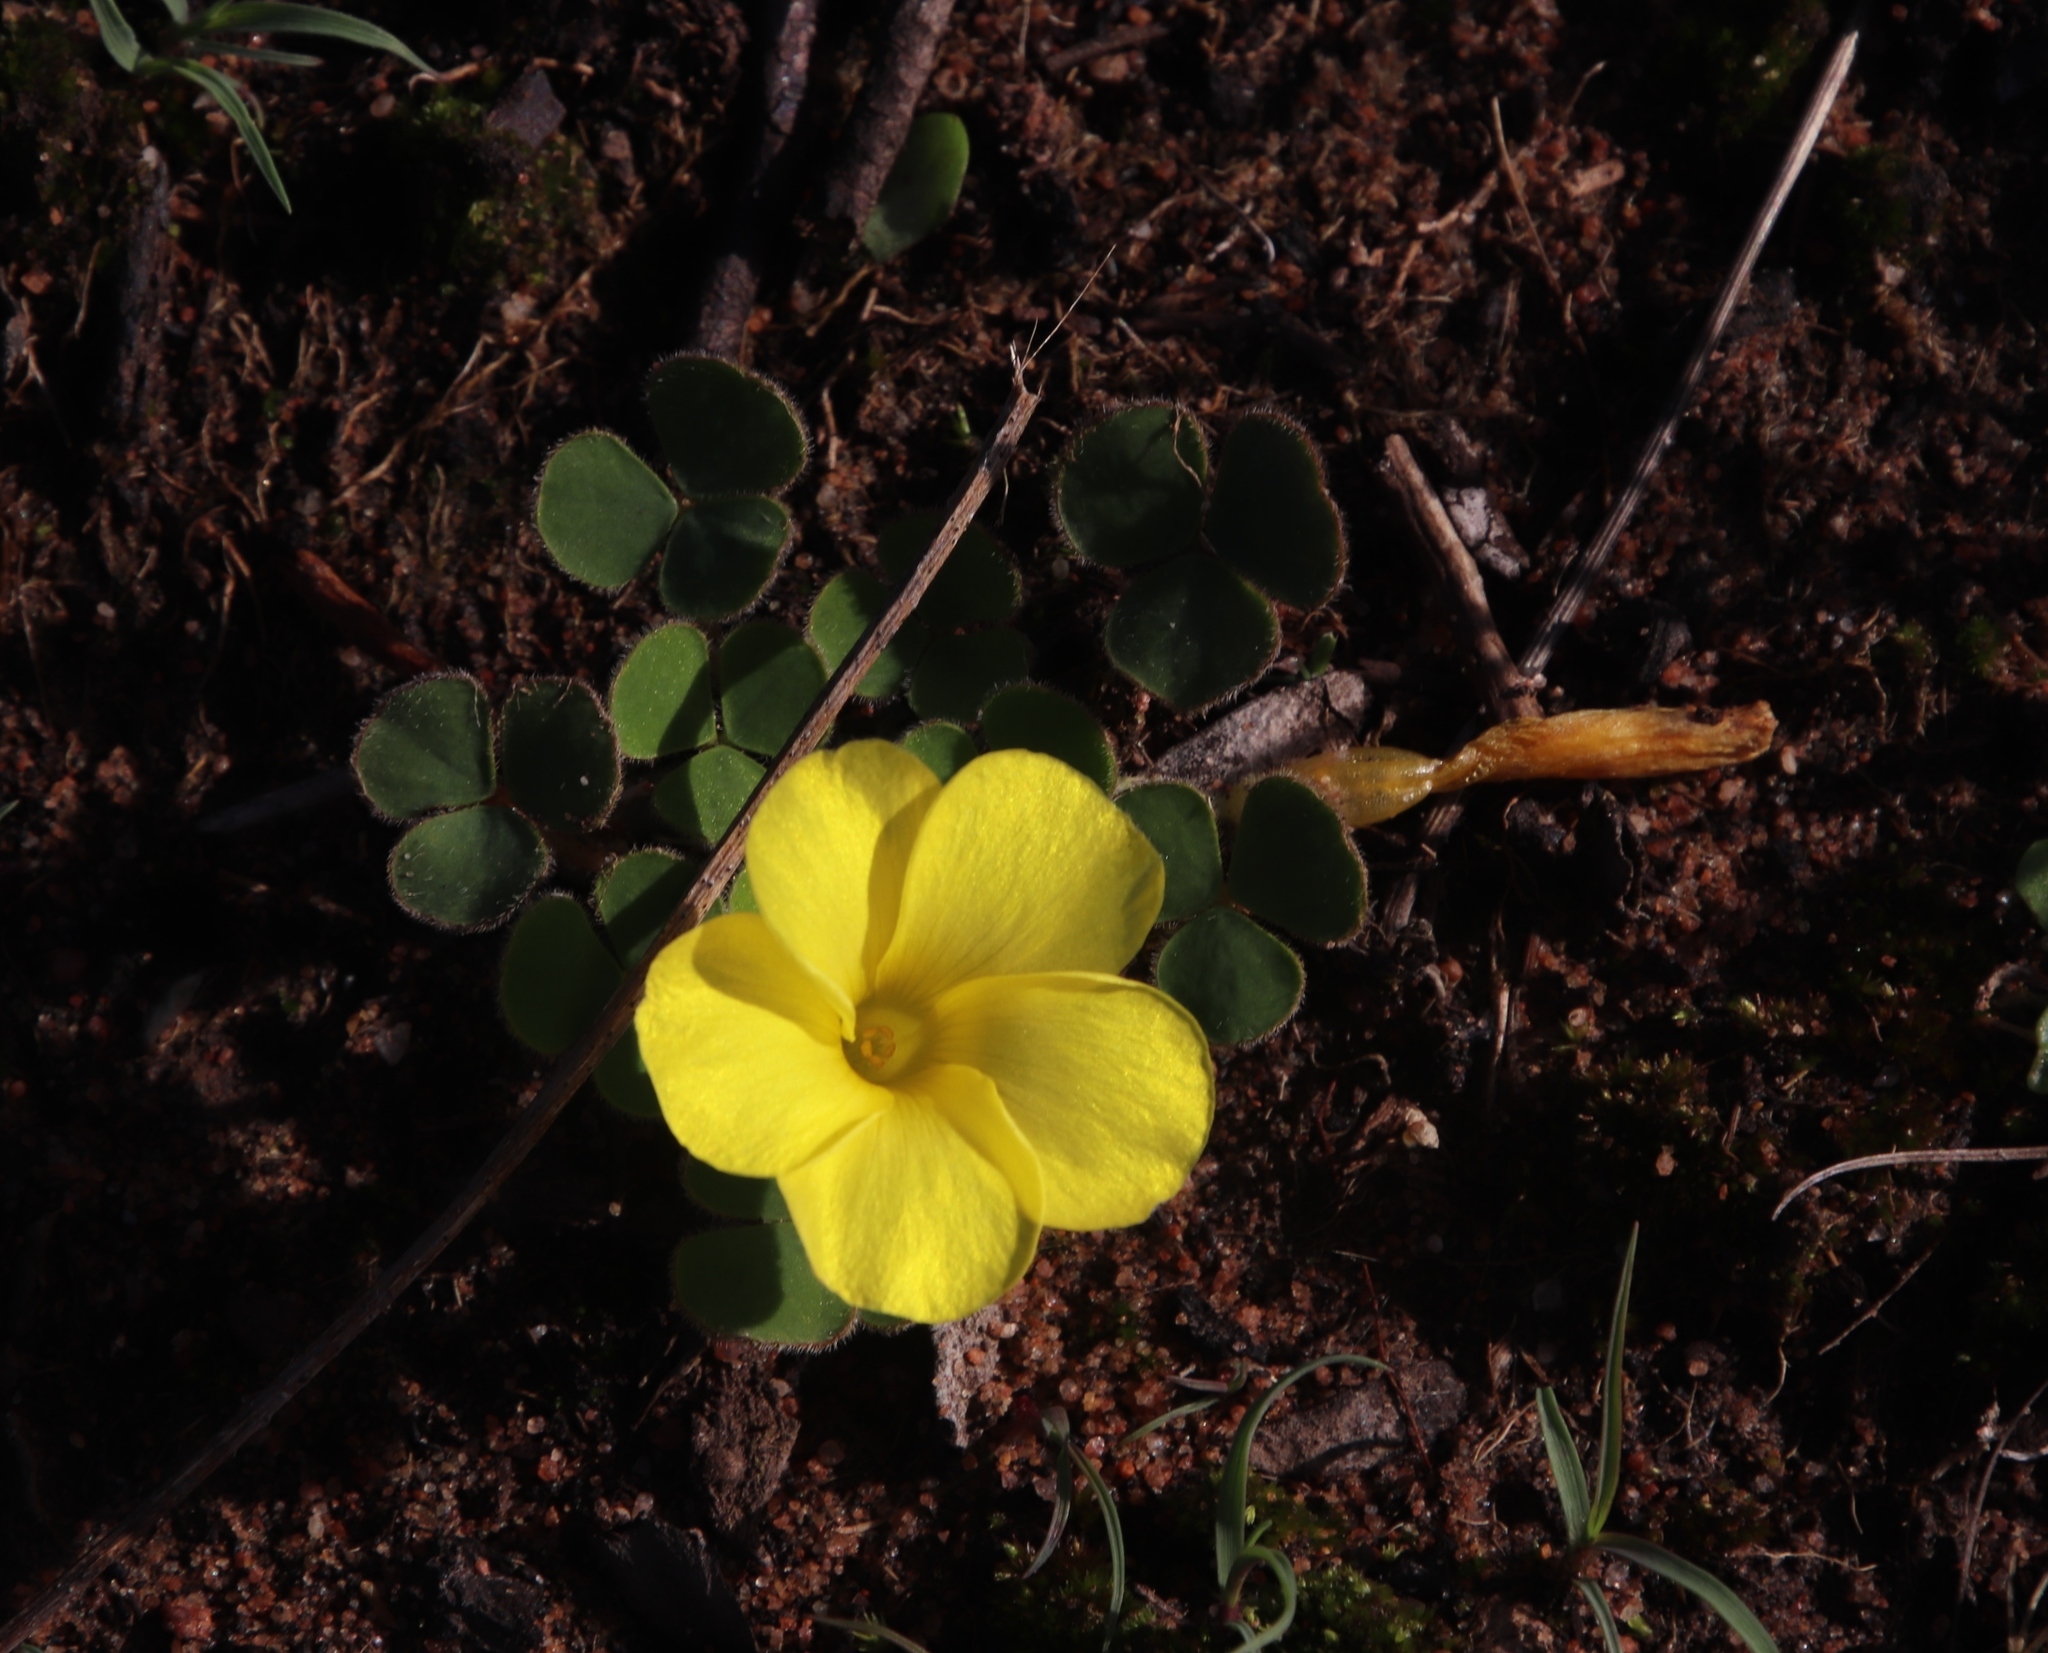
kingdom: Plantae
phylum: Tracheophyta
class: Magnoliopsida
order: Oxalidales
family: Oxalidaceae
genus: Oxalis
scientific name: Oxalis luteola
